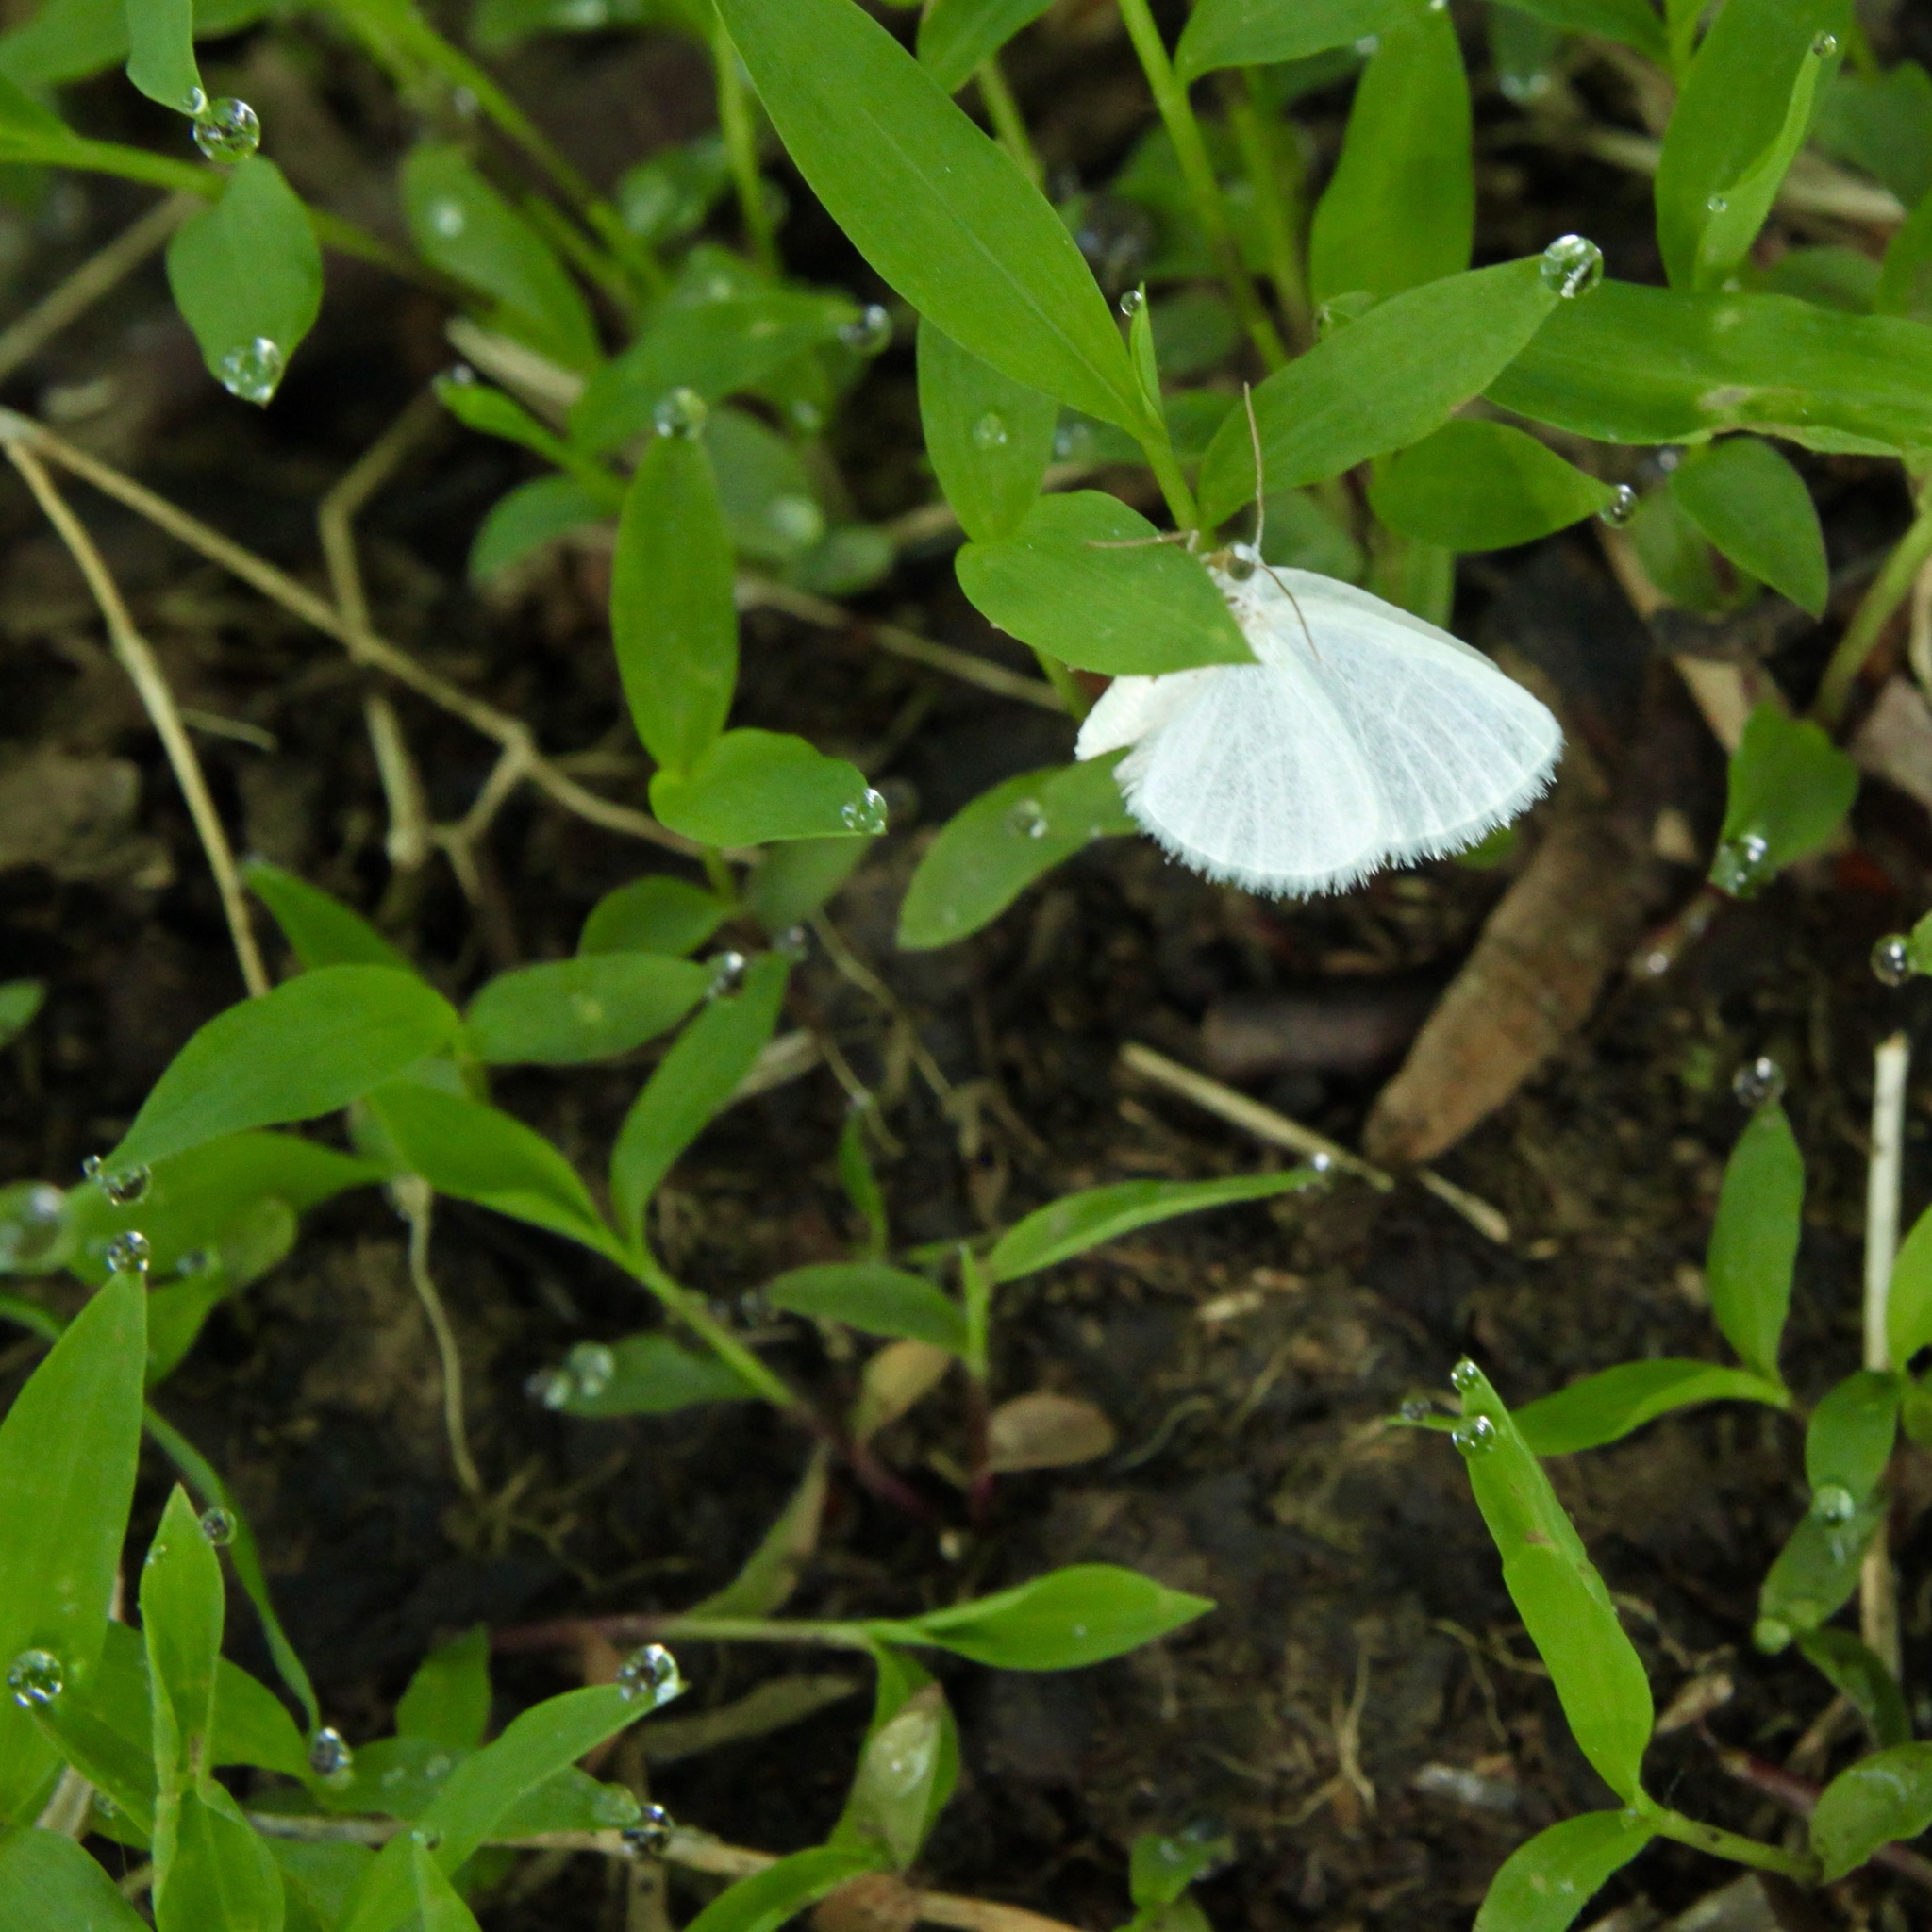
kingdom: Plantae
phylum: Tracheophyta
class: Polypodiopsida
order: Polypodiales
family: Onocleaceae
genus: Onoclea
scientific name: Onoclea sensibilis
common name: Sensitive fern
